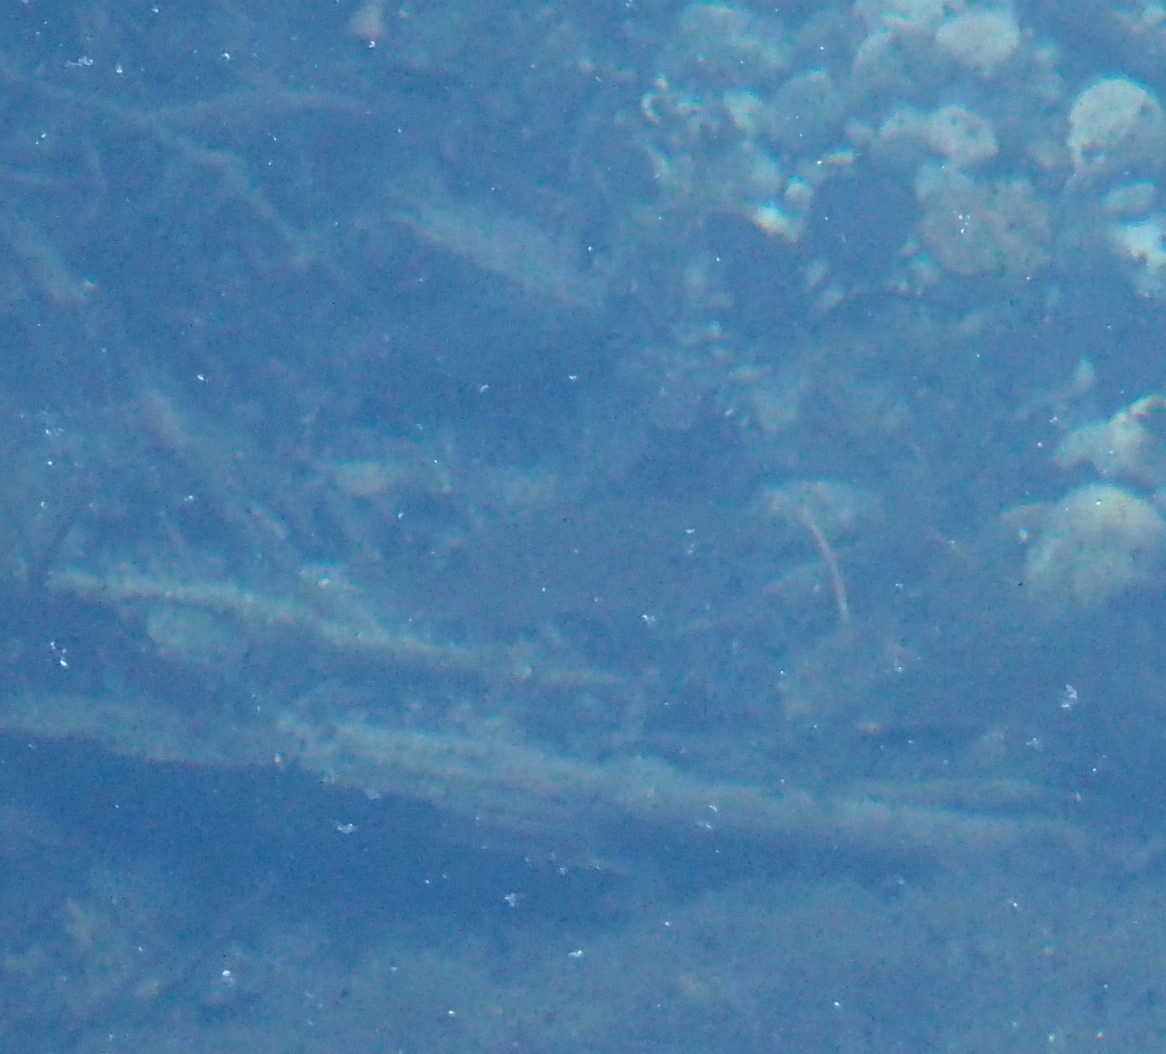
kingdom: Animalia
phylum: Chordata
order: Perciformes
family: Centrarchidae
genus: Lepomis
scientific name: Lepomis gibbosus
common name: Pumpkinseed
